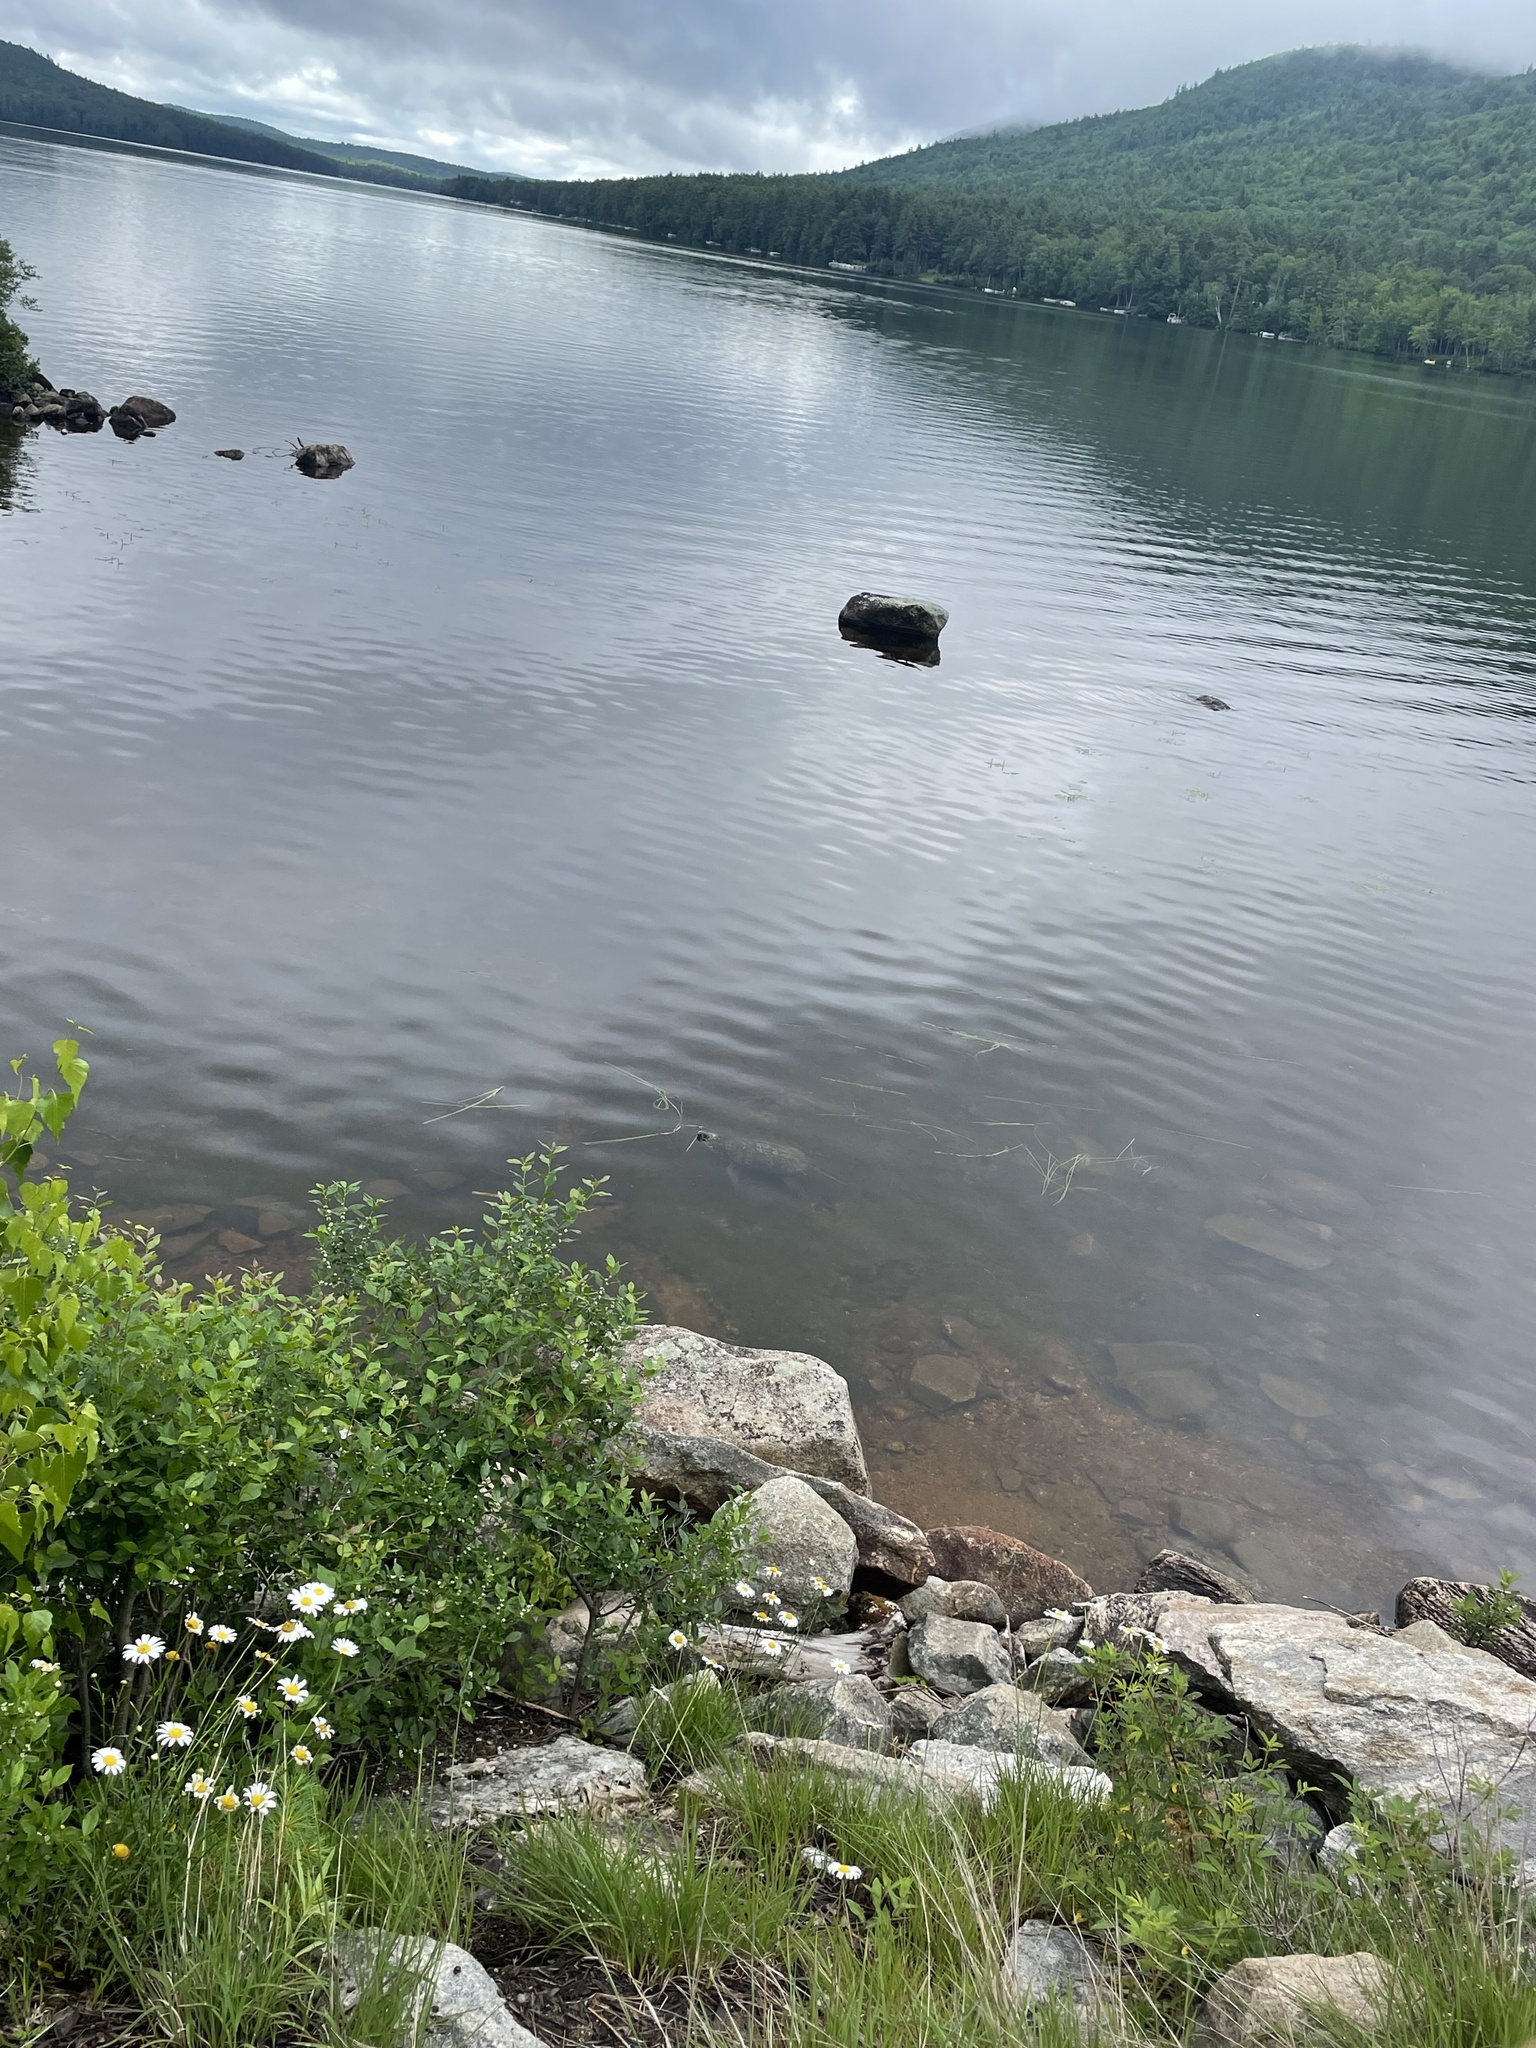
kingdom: Animalia
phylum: Chordata
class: Testudines
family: Chelydridae
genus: Chelydra
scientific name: Chelydra serpentina
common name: Common snapping turtle
